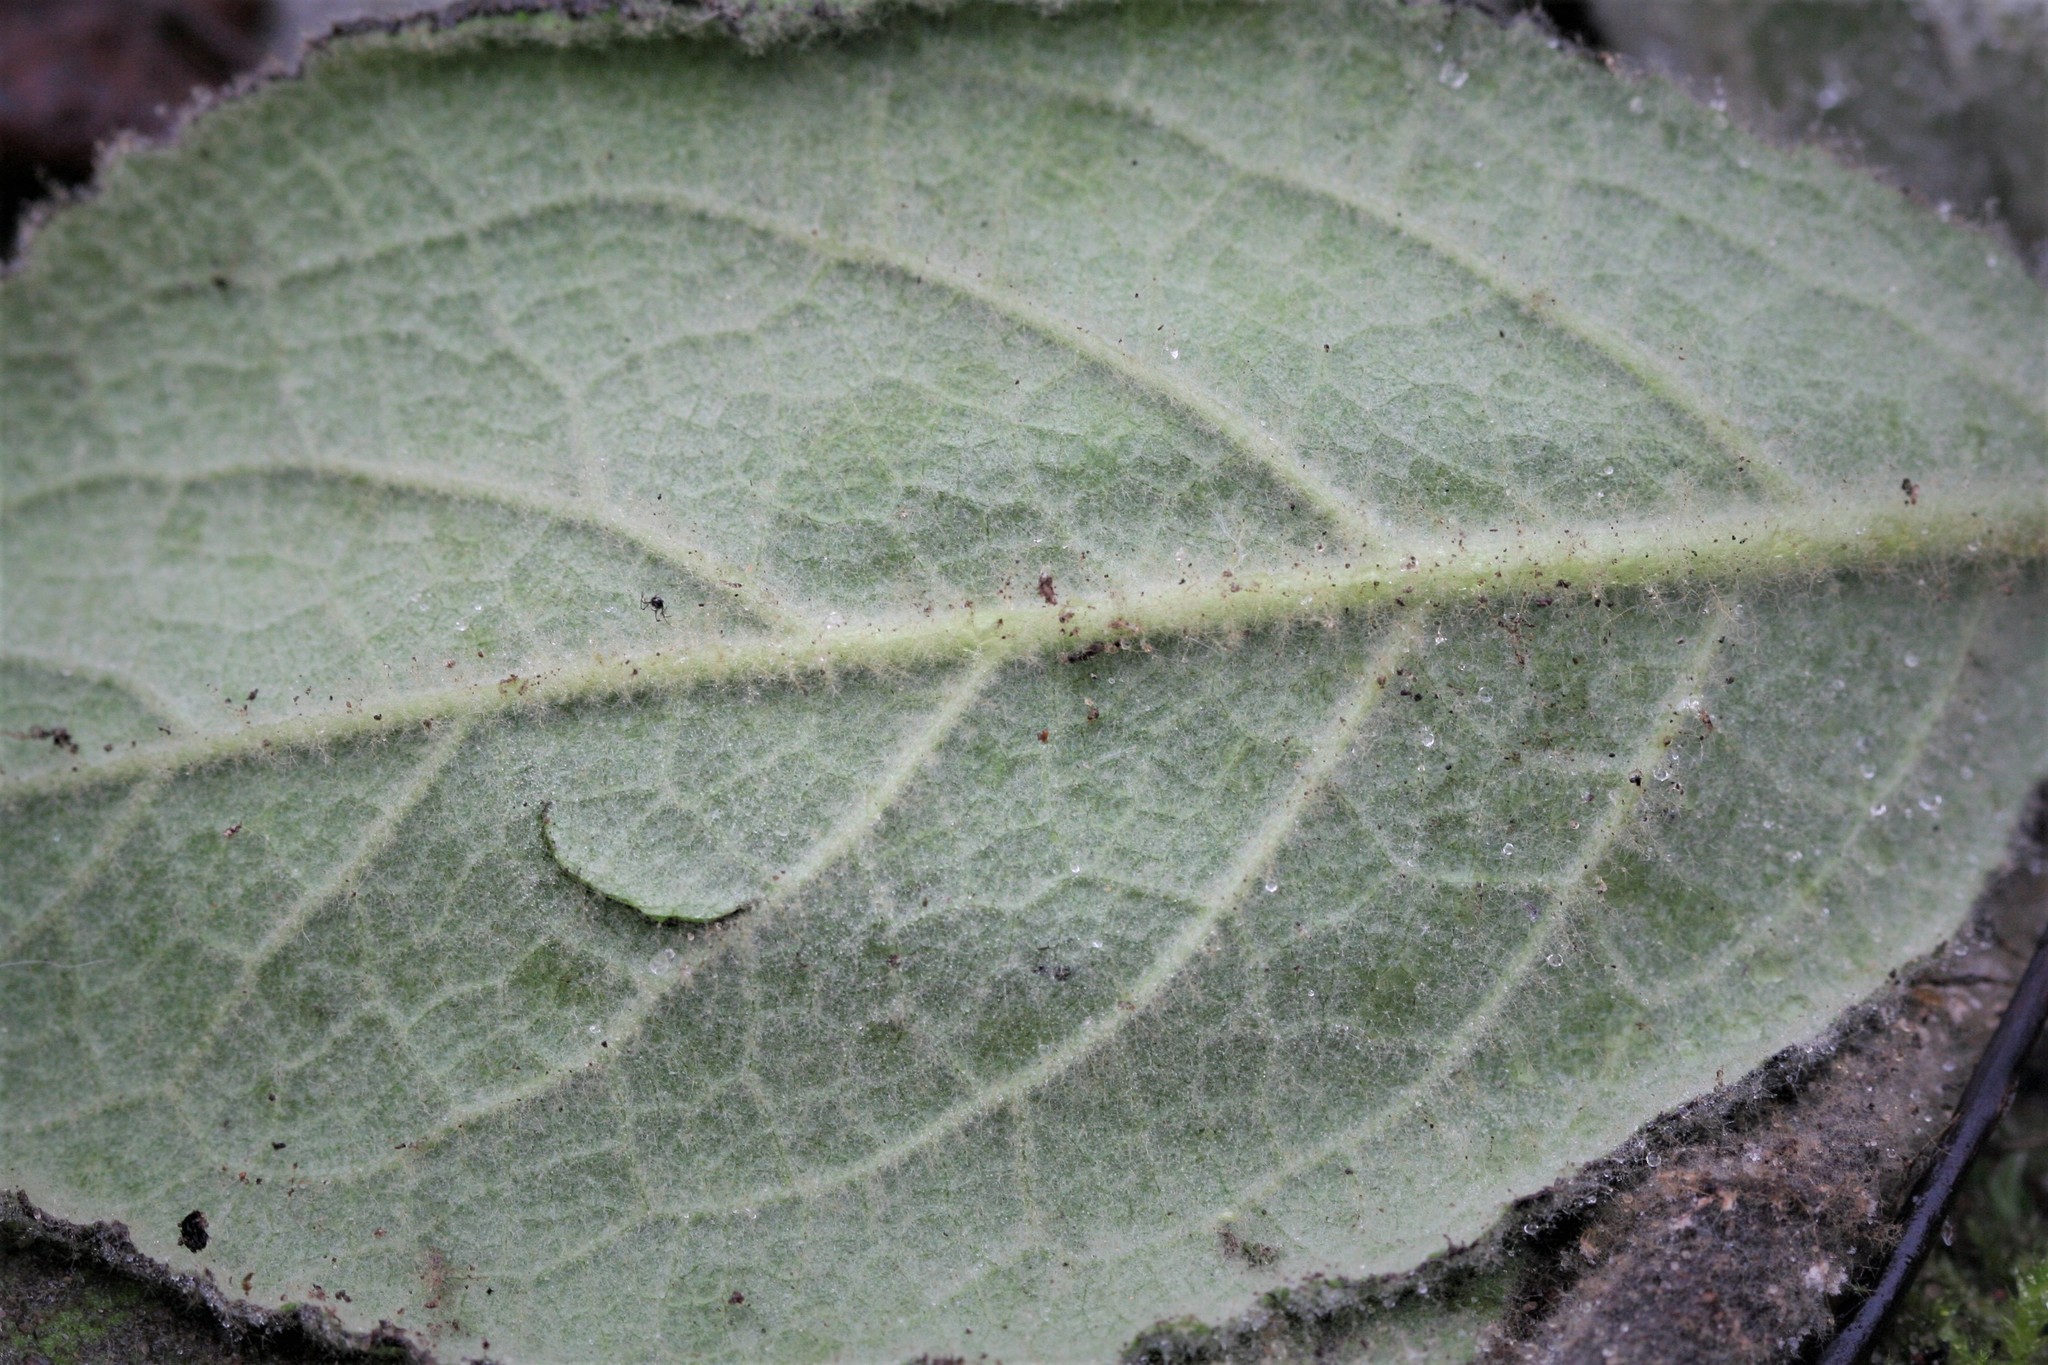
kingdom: Plantae
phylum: Tracheophyta
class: Magnoliopsida
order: Lamiales
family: Scrophulariaceae
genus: Verbascum
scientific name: Verbascum thapsus
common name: Common mullein
